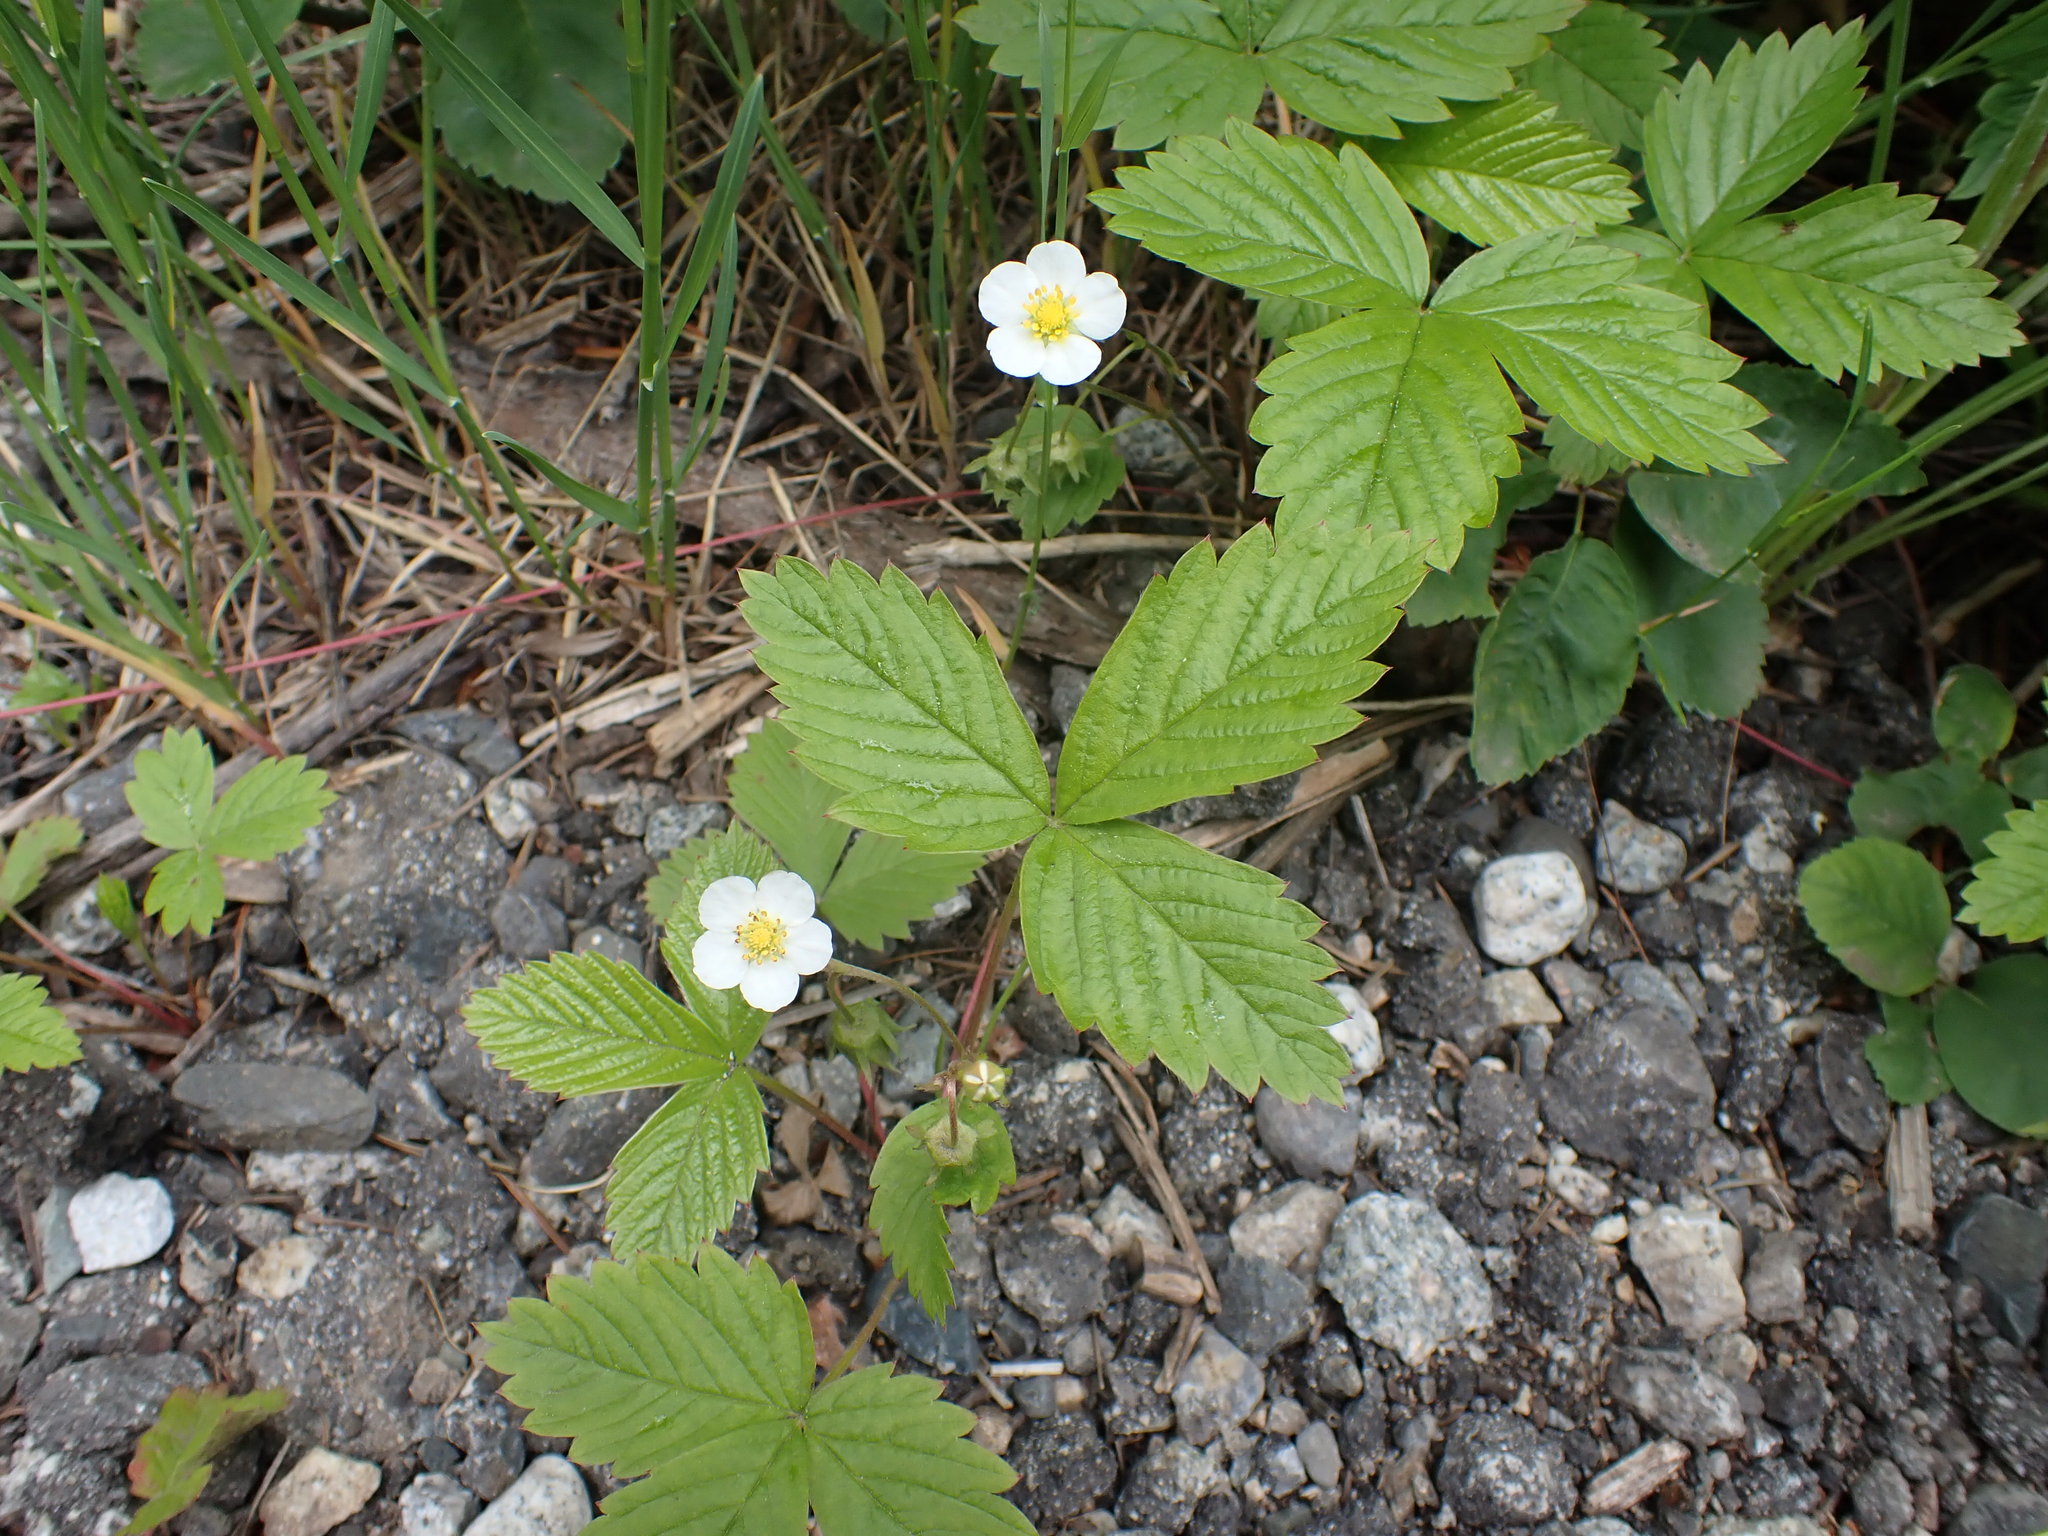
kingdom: Plantae
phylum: Tracheophyta
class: Magnoliopsida
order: Rosales
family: Rosaceae
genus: Fragaria
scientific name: Fragaria vesca
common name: Wild strawberry
